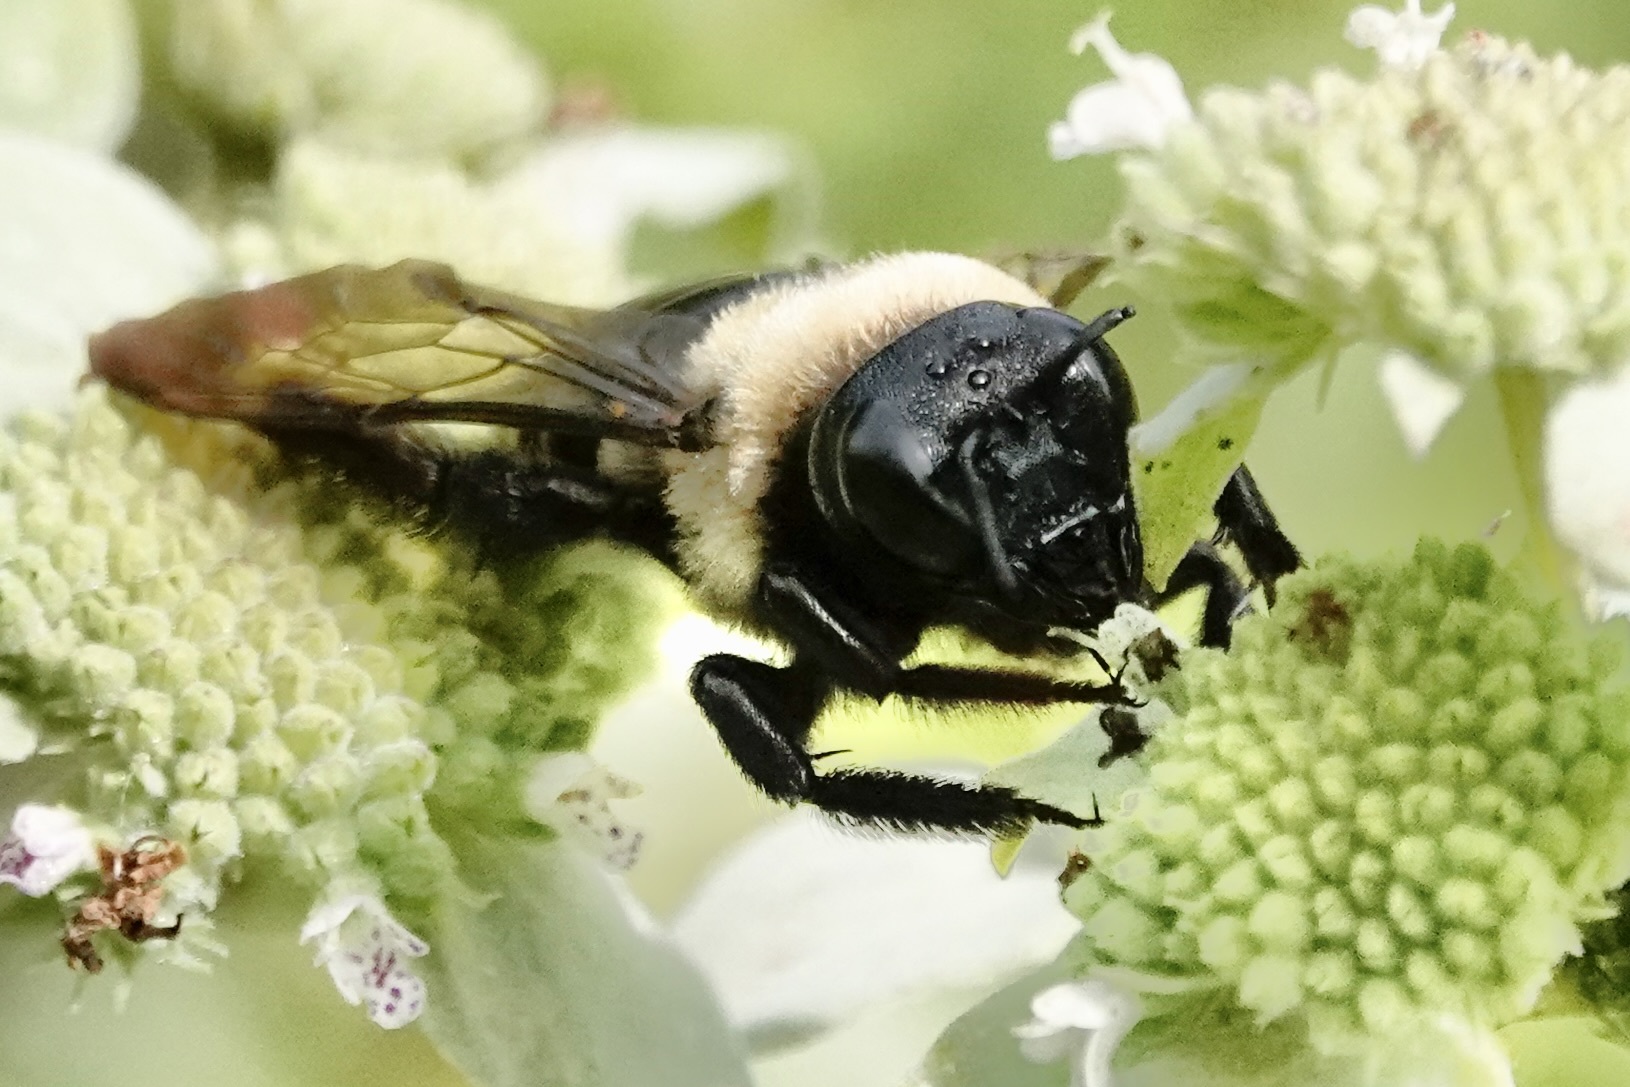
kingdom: Animalia
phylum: Arthropoda
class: Insecta
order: Hymenoptera
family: Apidae
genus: Xylocopa
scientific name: Xylocopa virginica
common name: Carpenter bee
